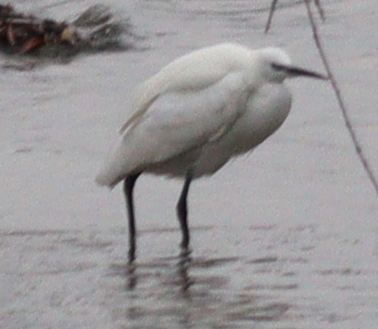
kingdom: Animalia
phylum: Chordata
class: Aves
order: Pelecaniformes
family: Ardeidae
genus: Egretta
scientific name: Egretta garzetta
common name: Little egret
